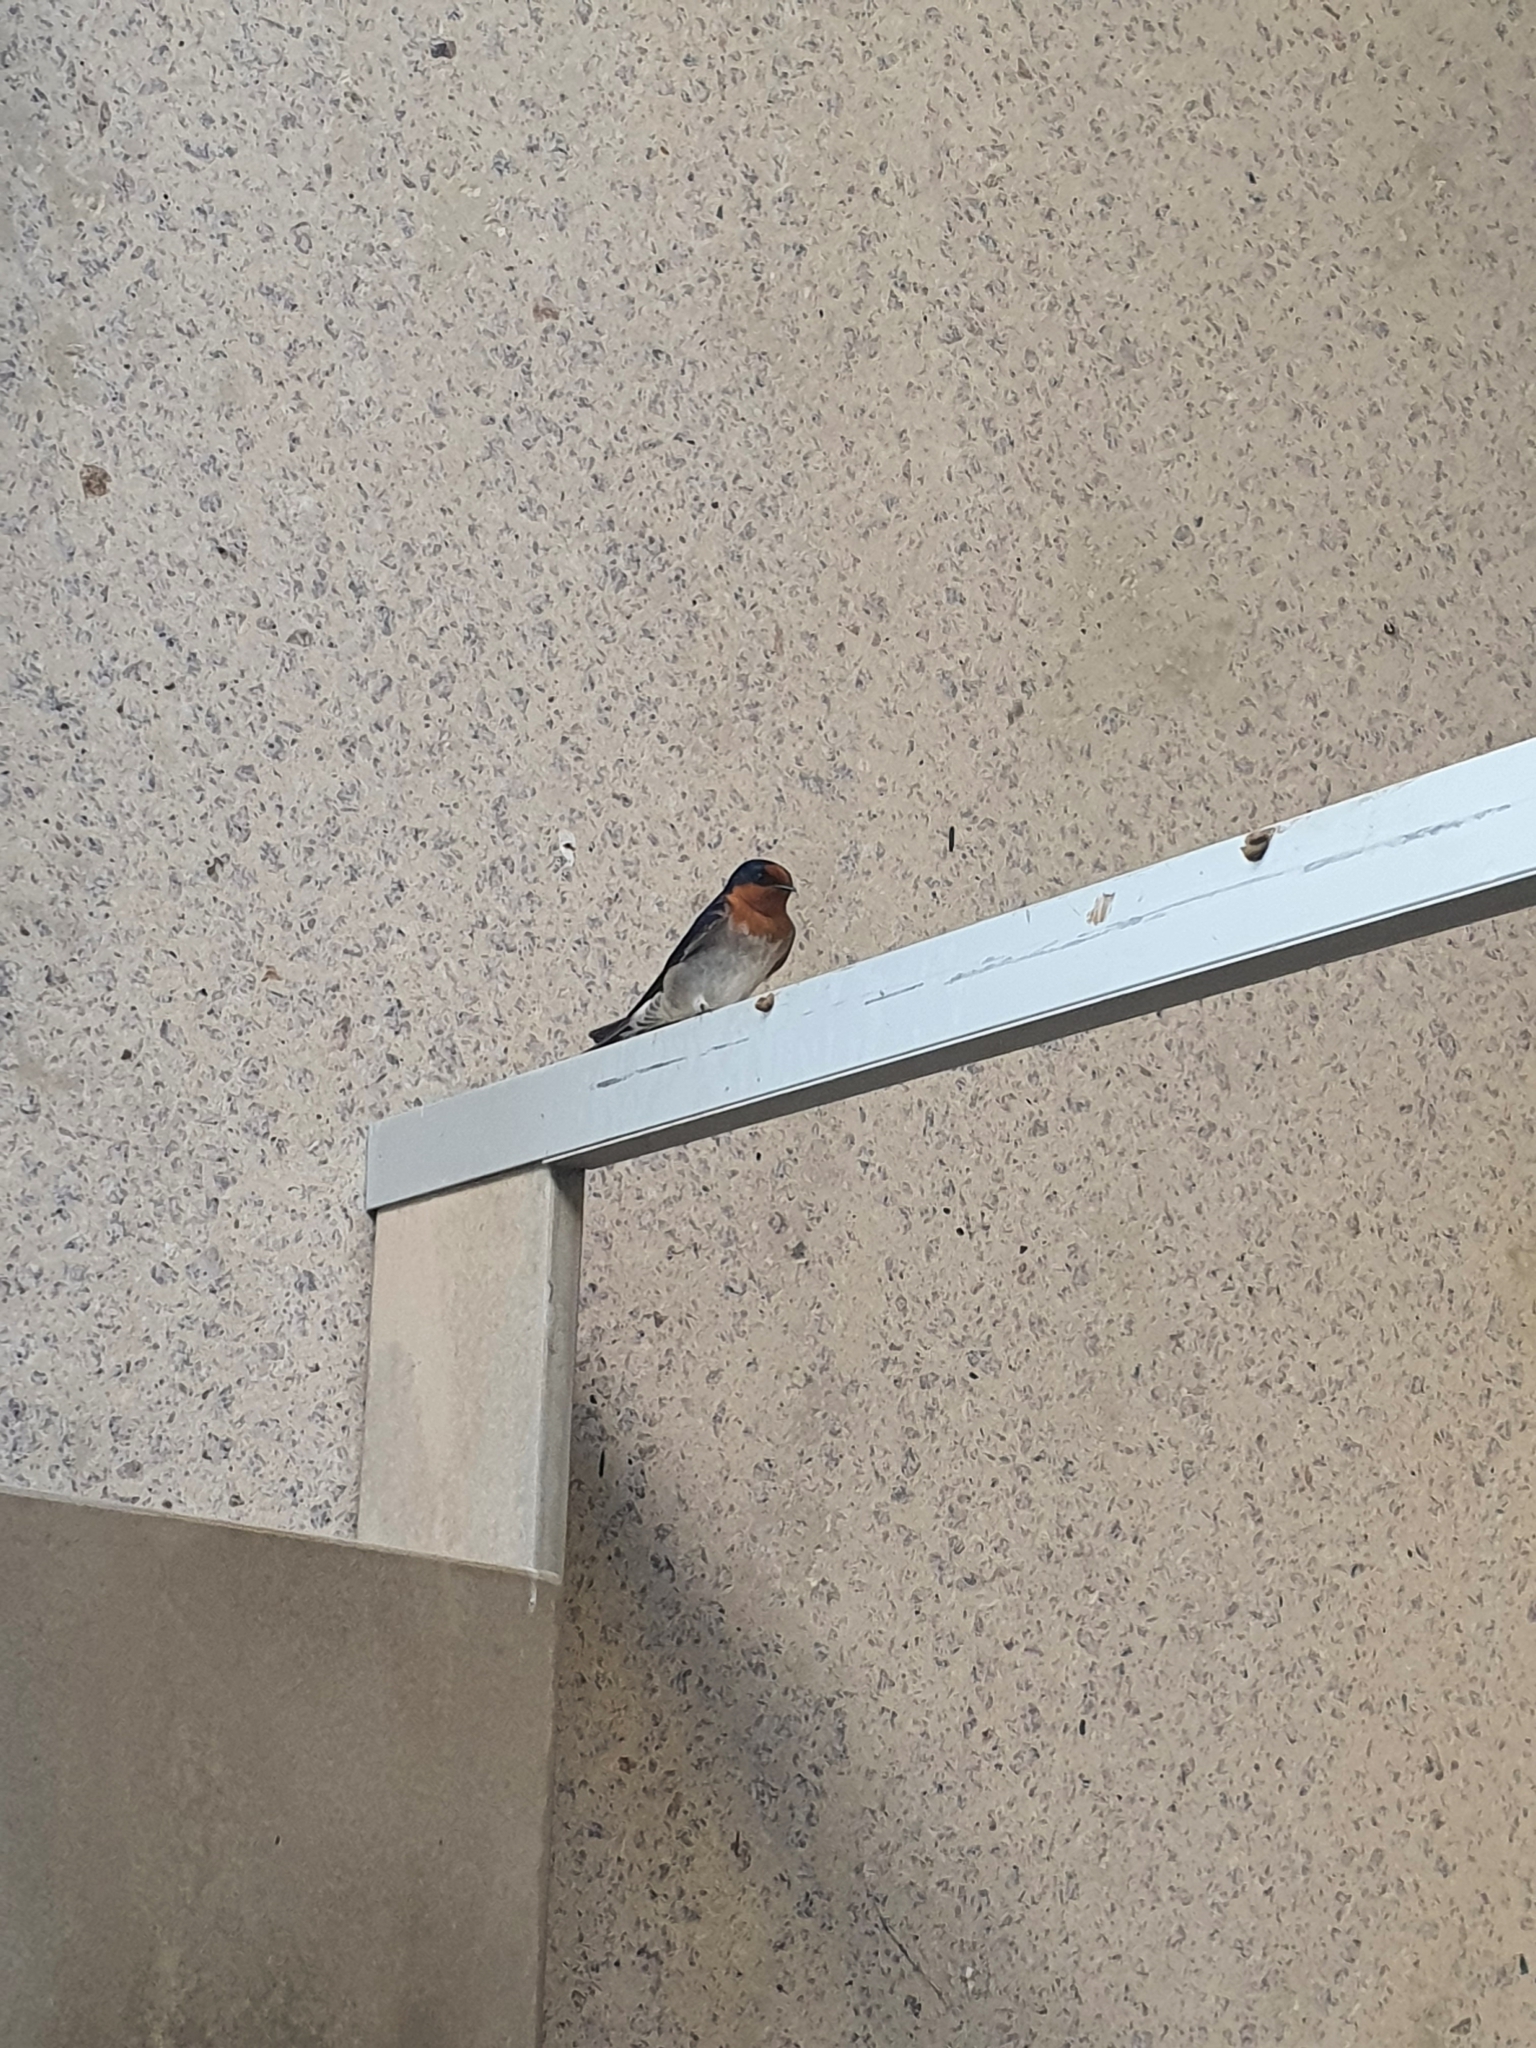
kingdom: Animalia
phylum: Chordata
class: Aves
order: Passeriformes
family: Hirundinidae
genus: Hirundo
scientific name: Hirundo neoxena
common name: Welcome swallow
